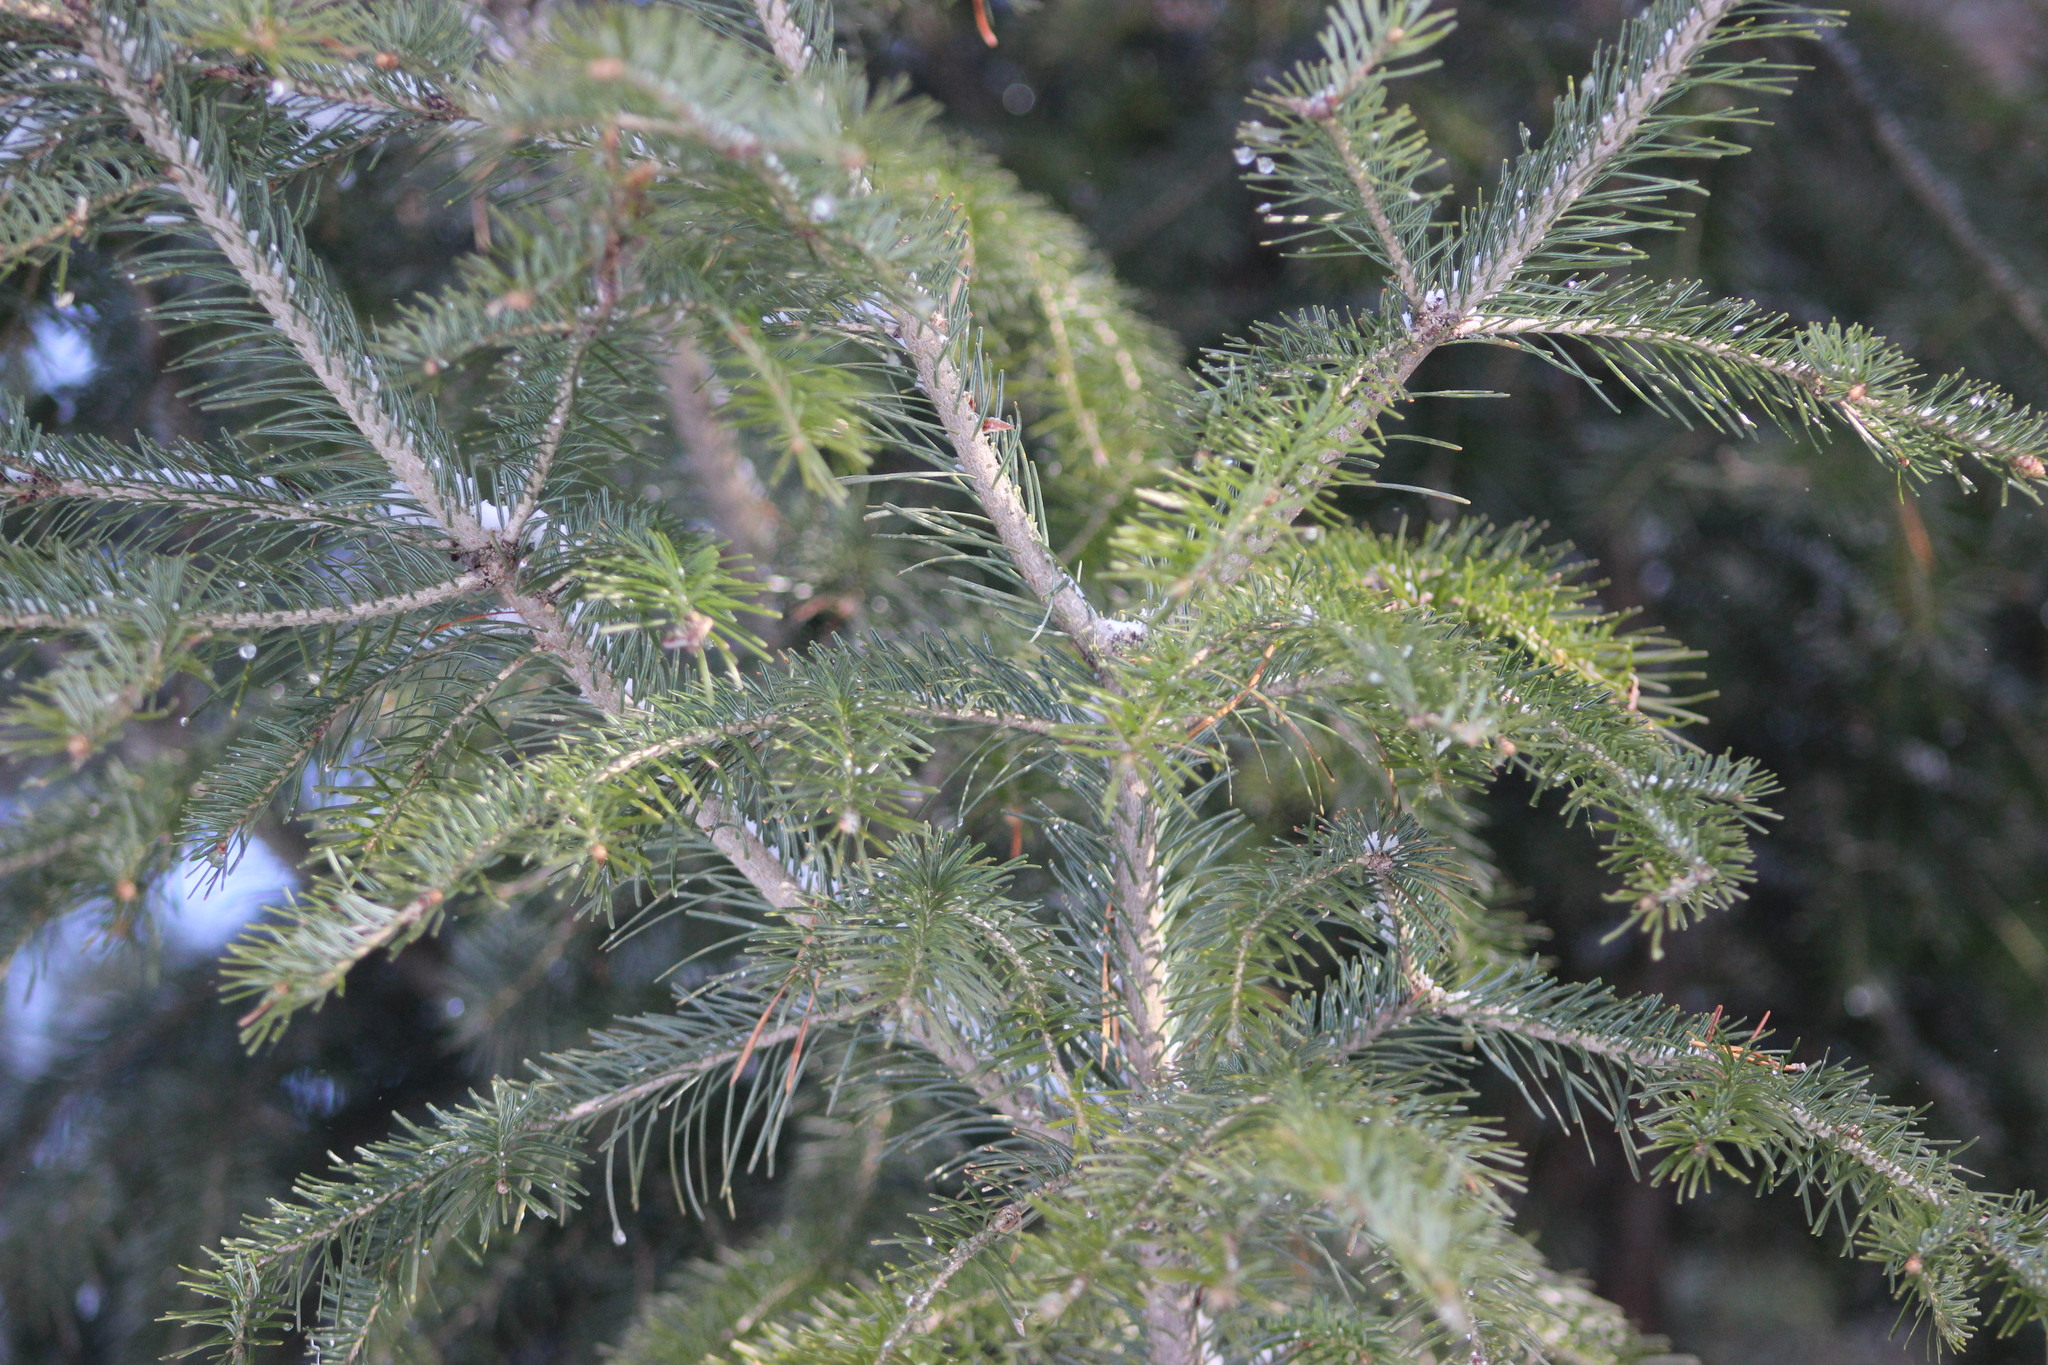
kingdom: Plantae
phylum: Tracheophyta
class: Pinopsida
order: Pinales
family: Pinaceae
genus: Abies
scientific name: Abies sibirica
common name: Siberian fir
